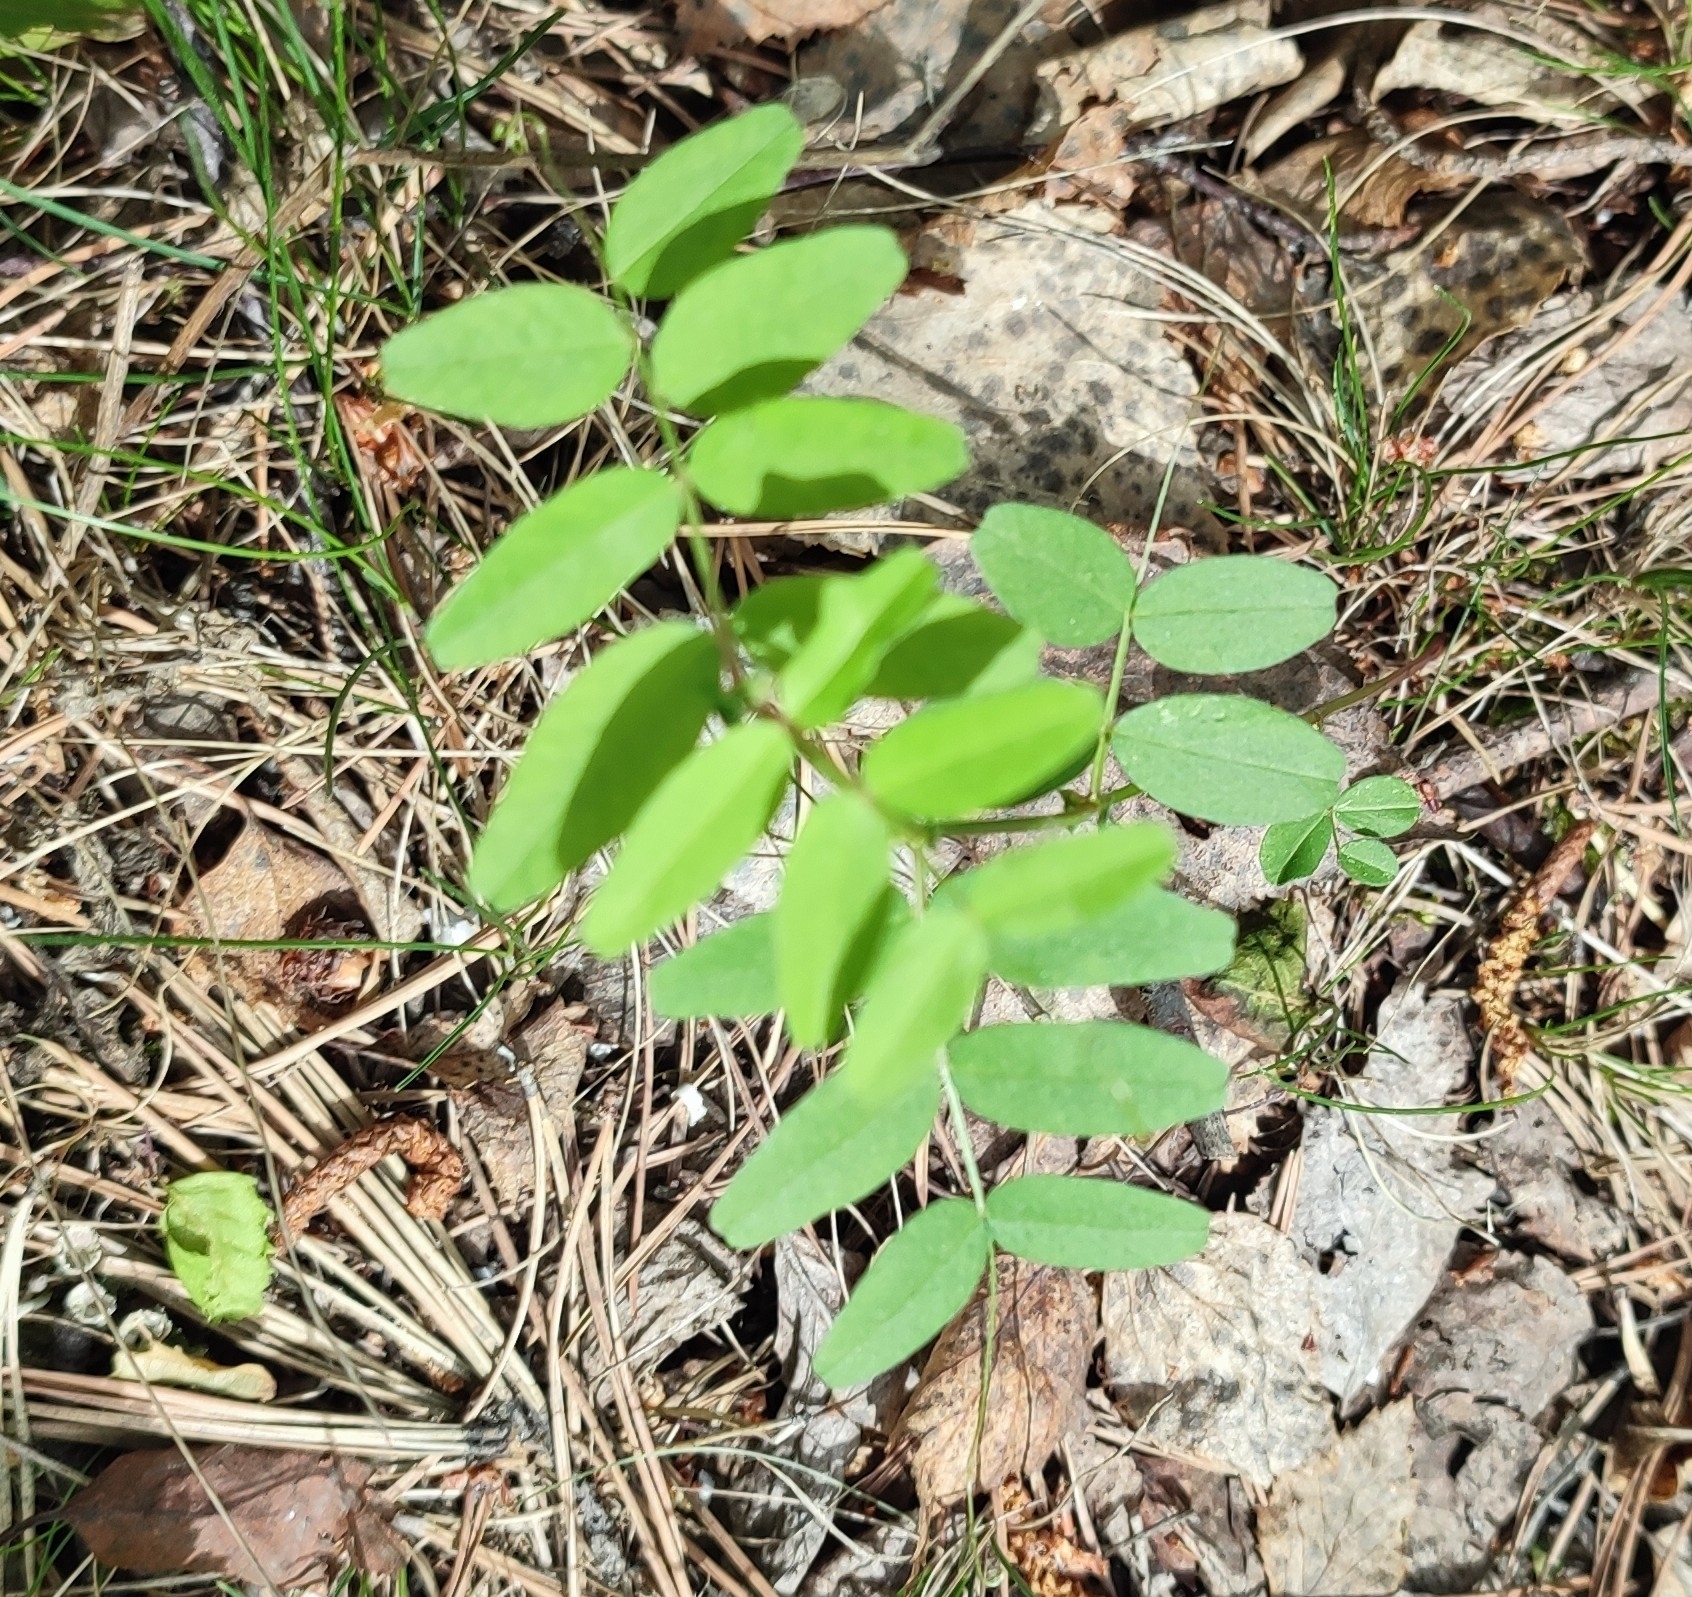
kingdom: Plantae
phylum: Tracheophyta
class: Magnoliopsida
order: Fabales
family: Fabaceae
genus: Vicia
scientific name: Vicia sepium
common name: Bush vetch
